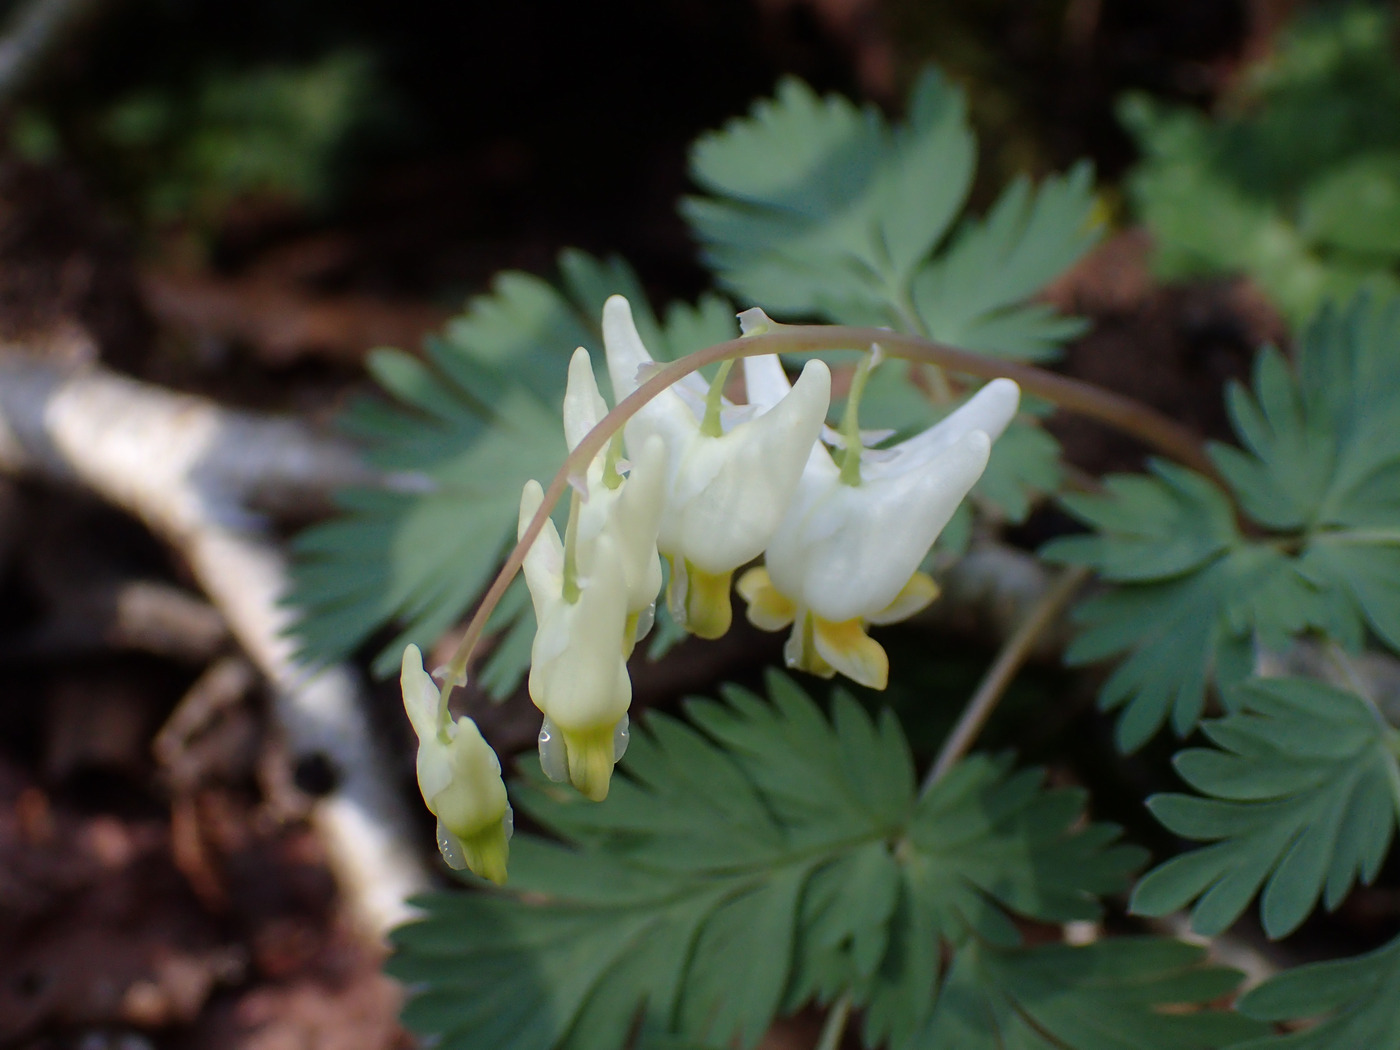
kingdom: Plantae
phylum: Tracheophyta
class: Magnoliopsida
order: Ranunculales
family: Papaveraceae
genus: Dicentra
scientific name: Dicentra cucullaria
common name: Dutchman's breeches
